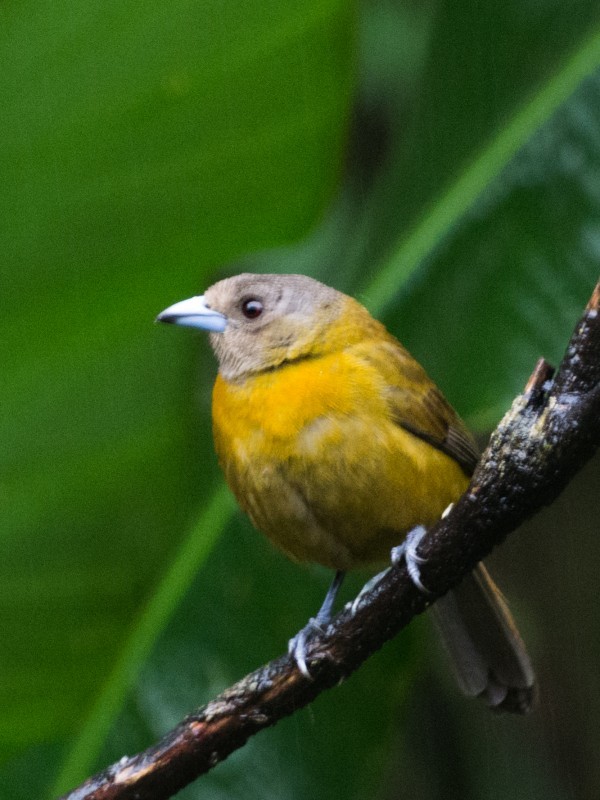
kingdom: Animalia
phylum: Chordata
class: Aves
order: Passeriformes
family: Thraupidae
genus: Ramphocelus
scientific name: Ramphocelus passerinii
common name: Passerini's tanager
